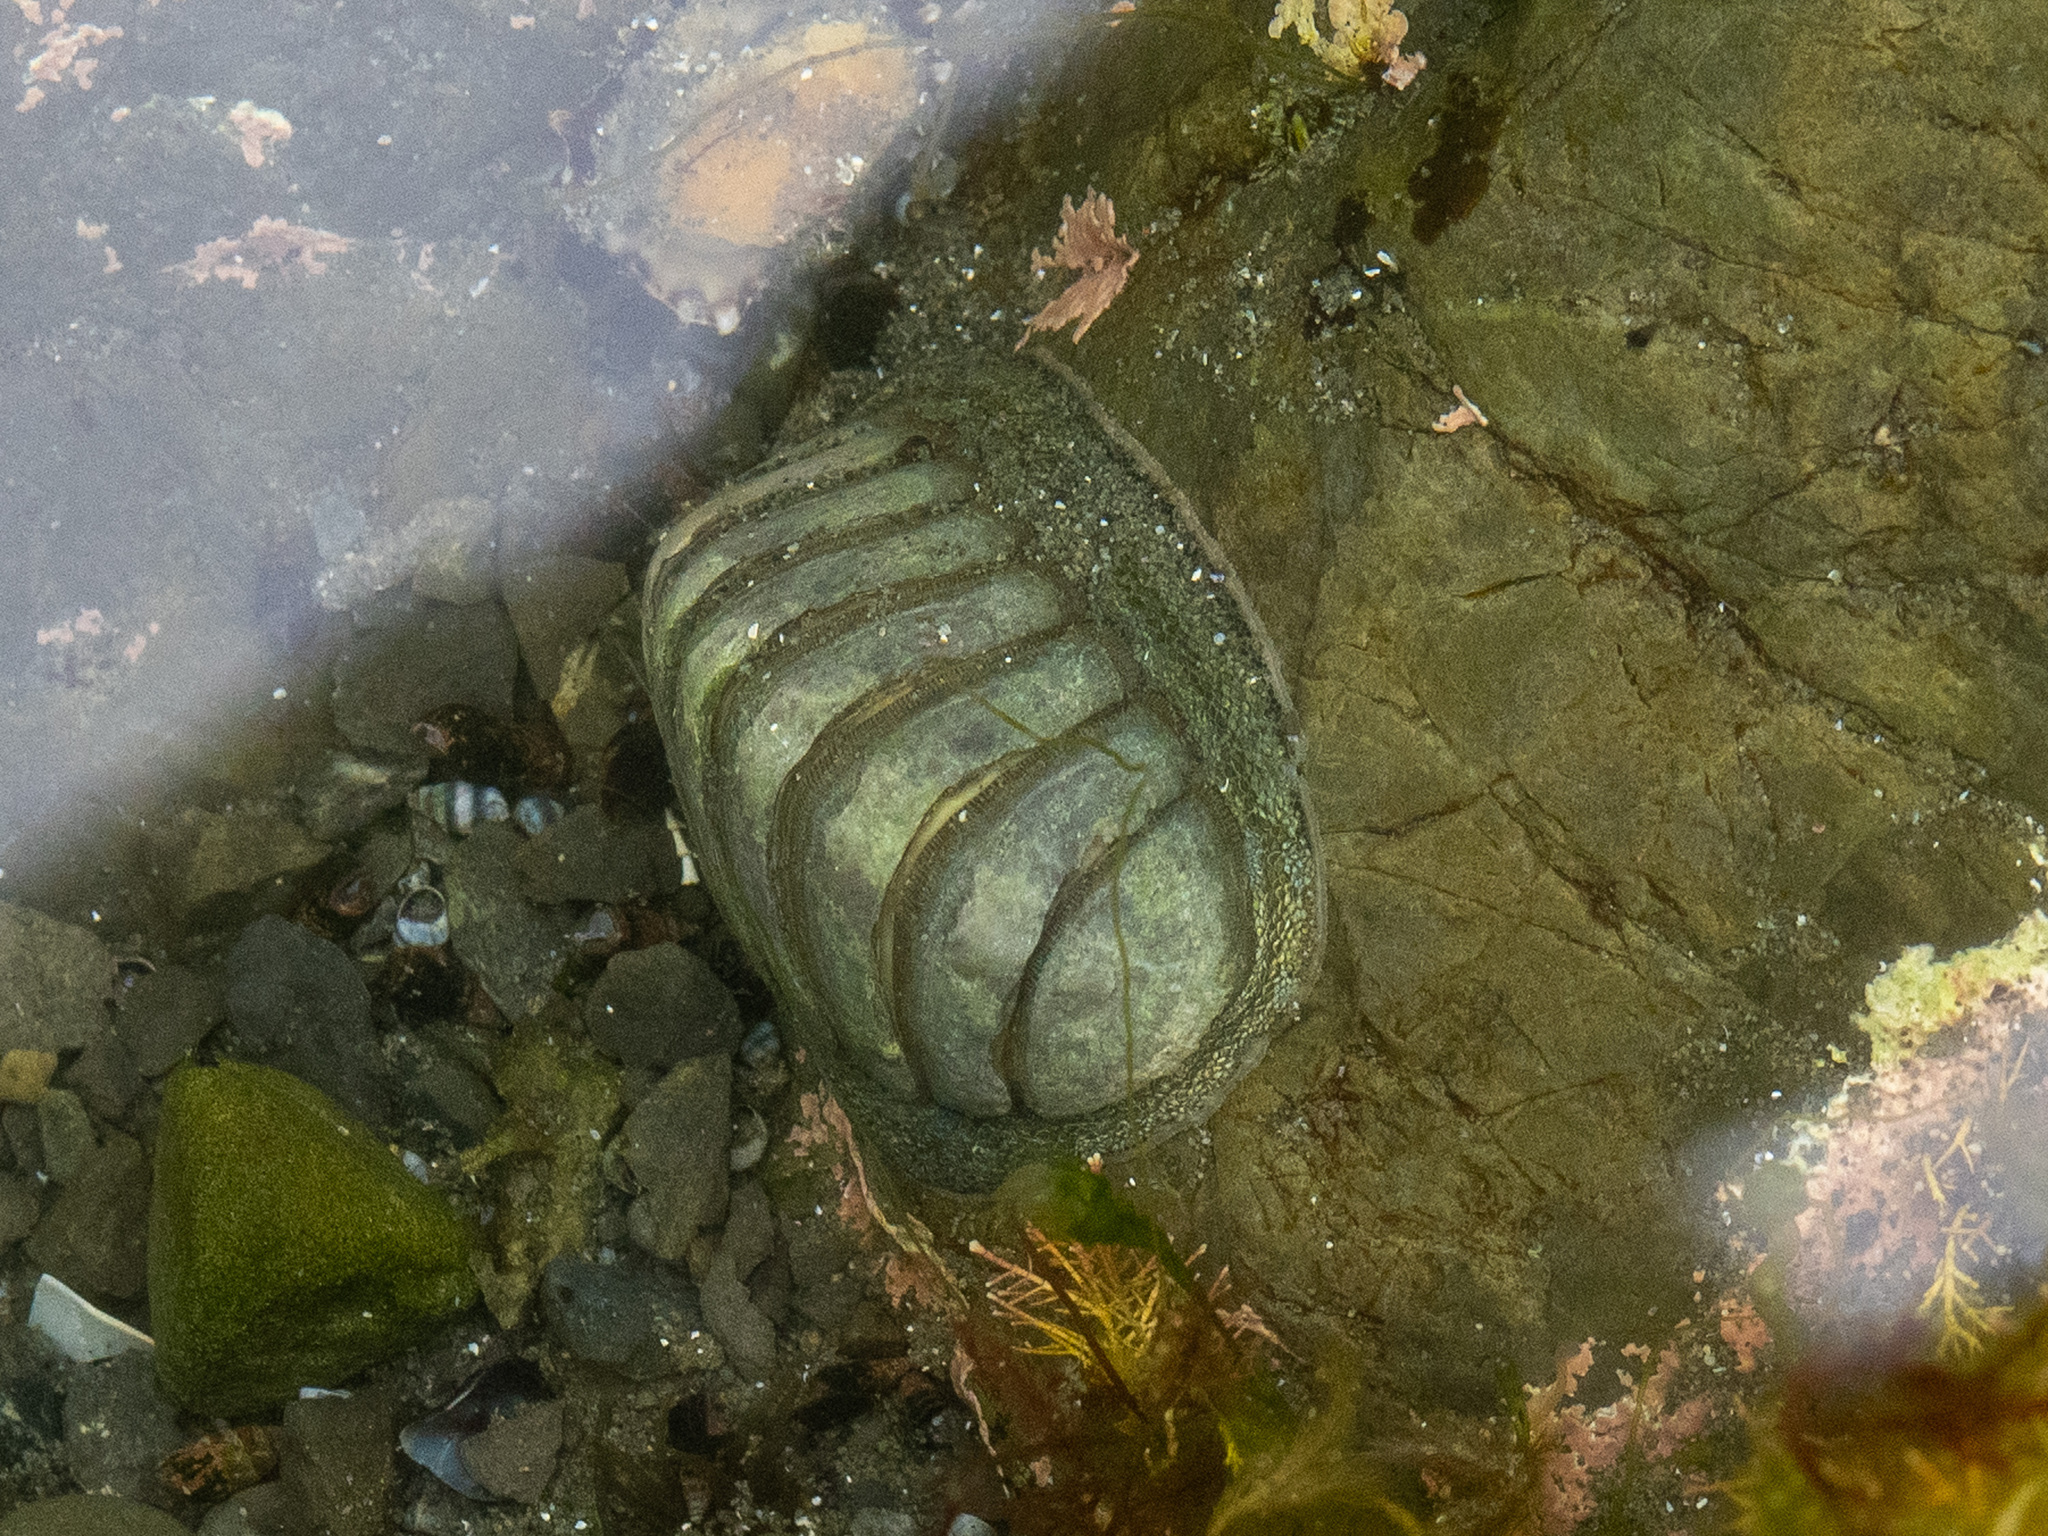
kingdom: Animalia
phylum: Mollusca
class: Polyplacophora
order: Chitonida
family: Chitonidae
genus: Chiton
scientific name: Chiton glaucus
